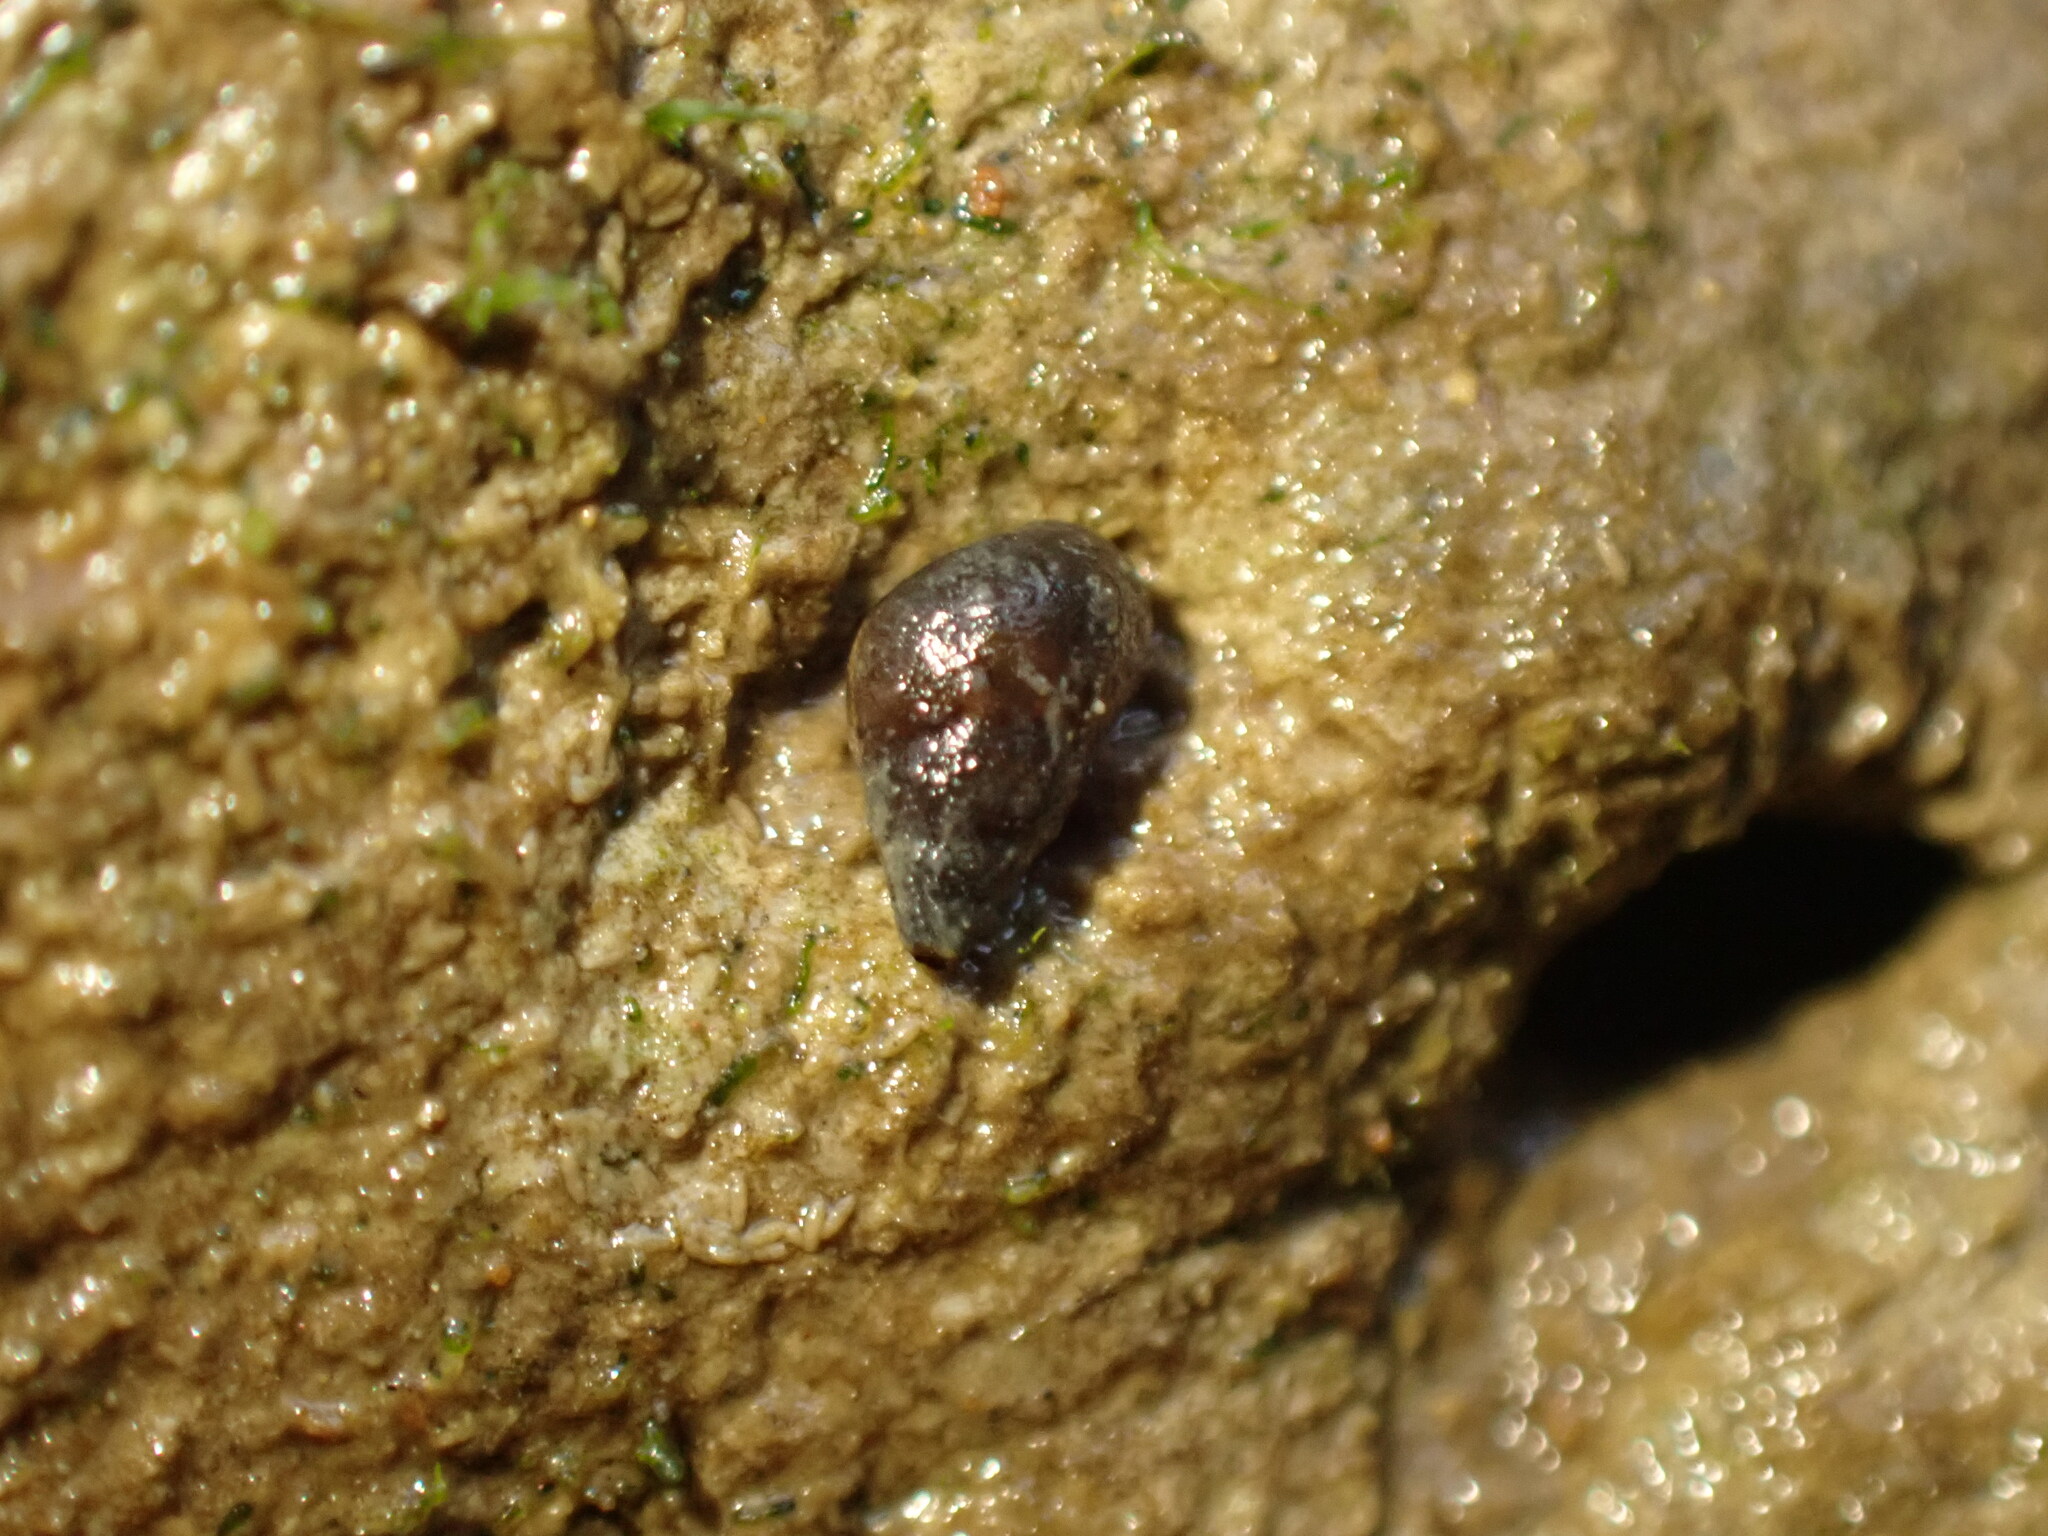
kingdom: Animalia
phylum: Mollusca
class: Gastropoda
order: Littorinimorpha
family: Tateidae
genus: Potamopyrgus
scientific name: Potamopyrgus estuarinus
